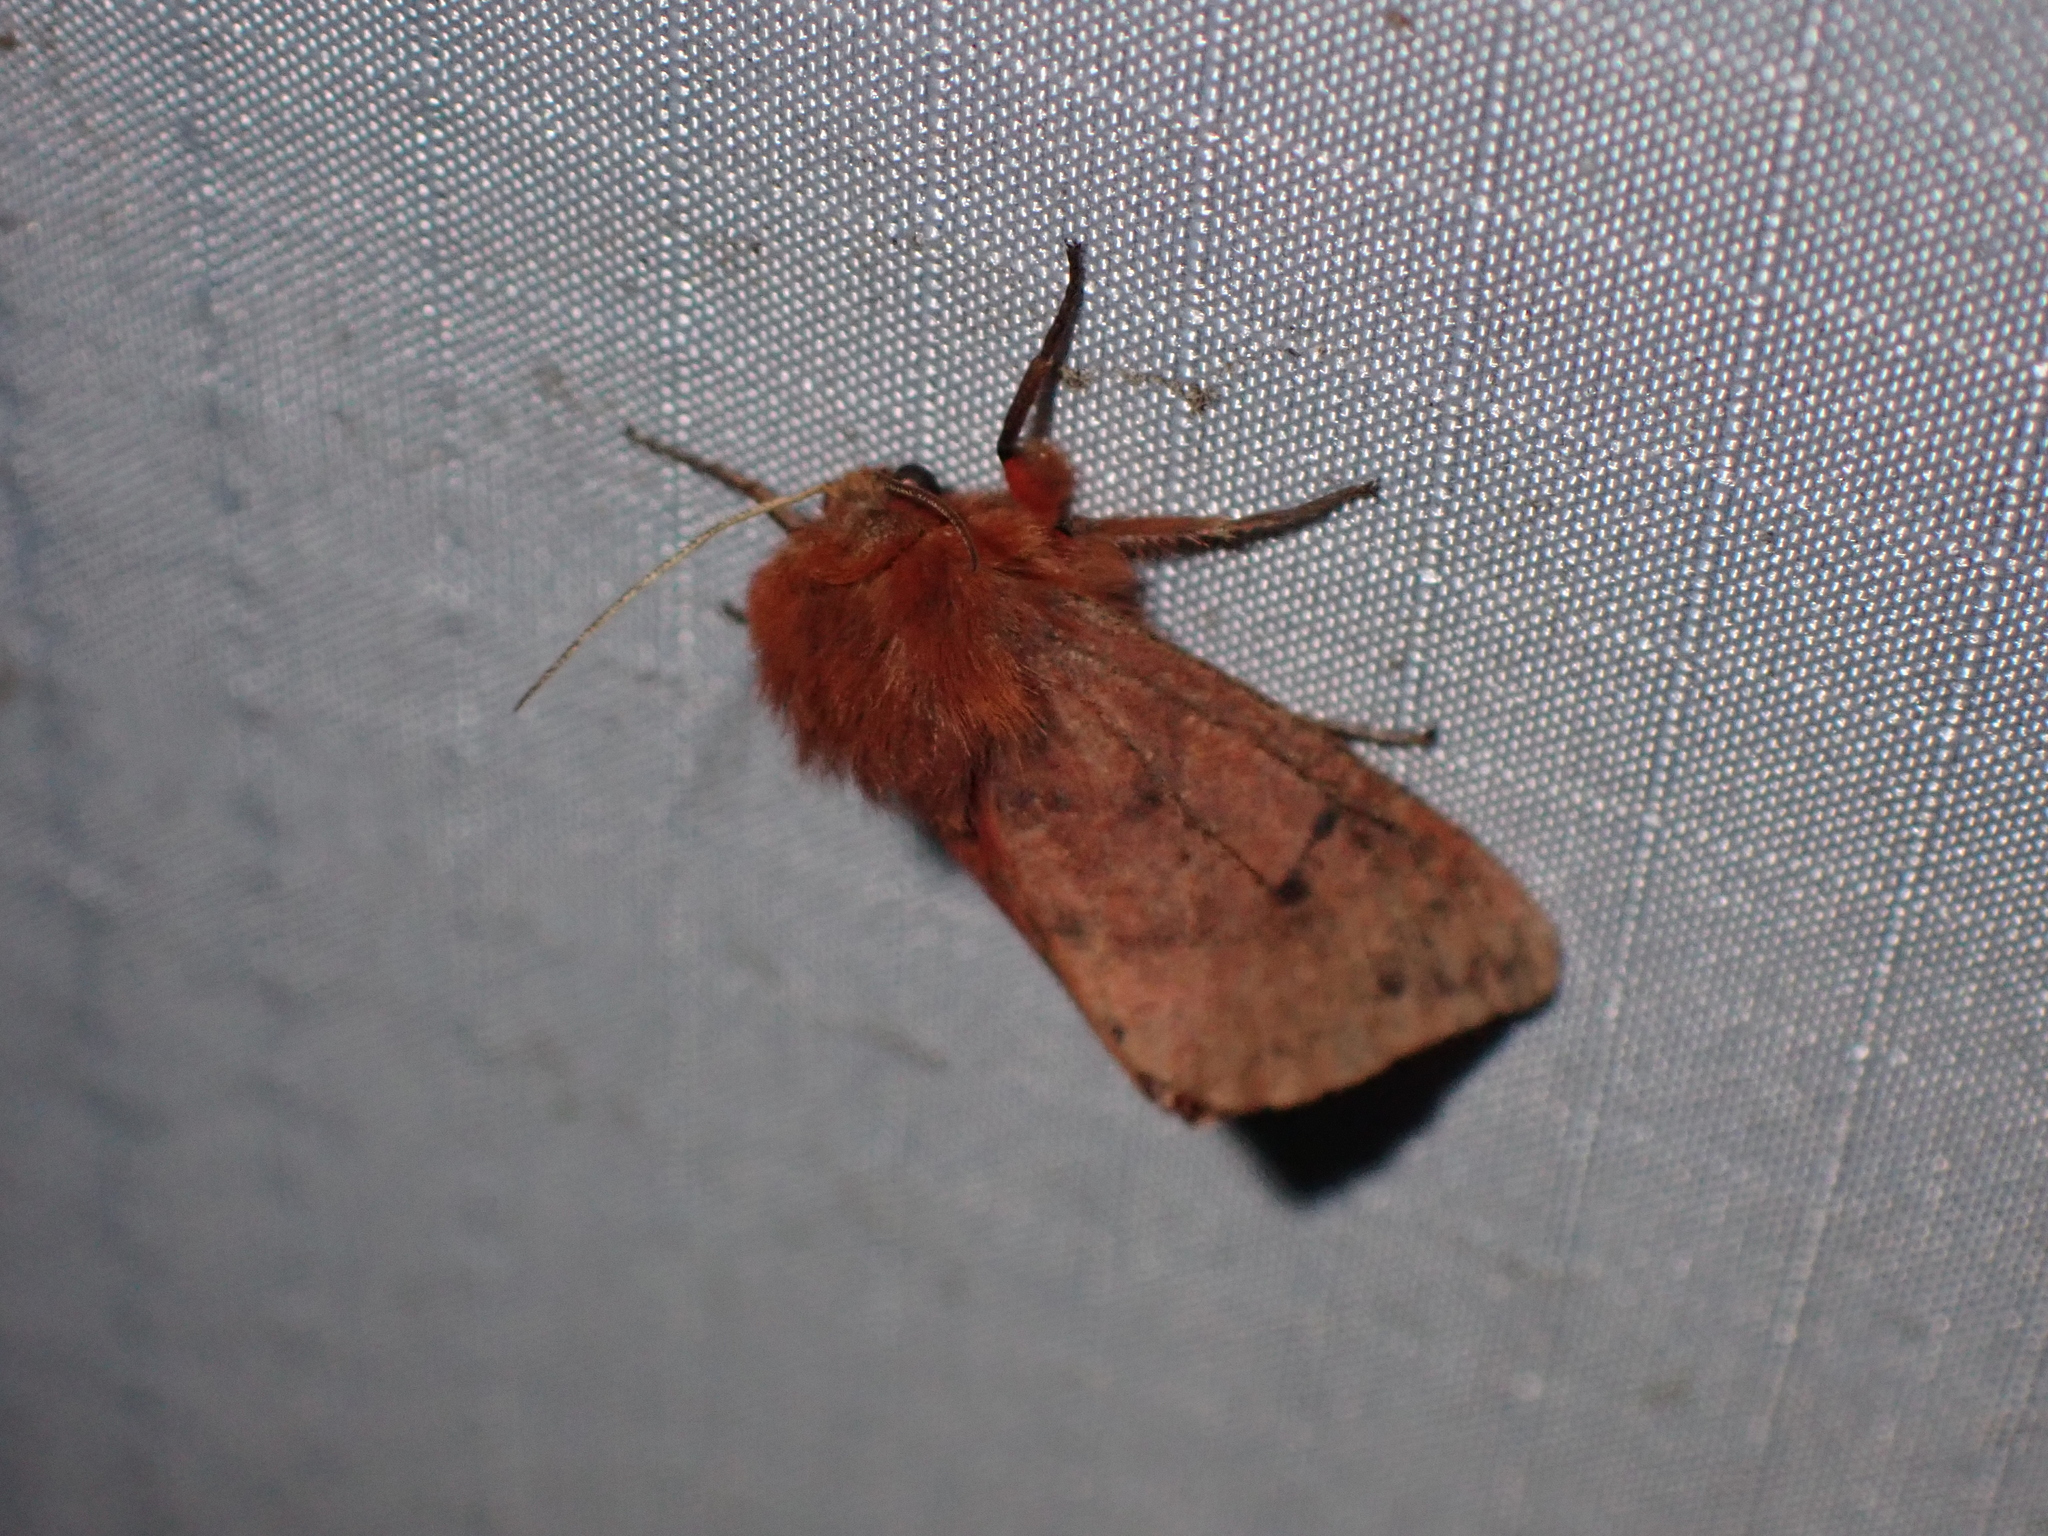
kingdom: Animalia
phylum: Arthropoda
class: Insecta
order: Lepidoptera
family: Erebidae
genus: Phragmatobia
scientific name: Phragmatobia assimilans
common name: Large ruby tiger moth
